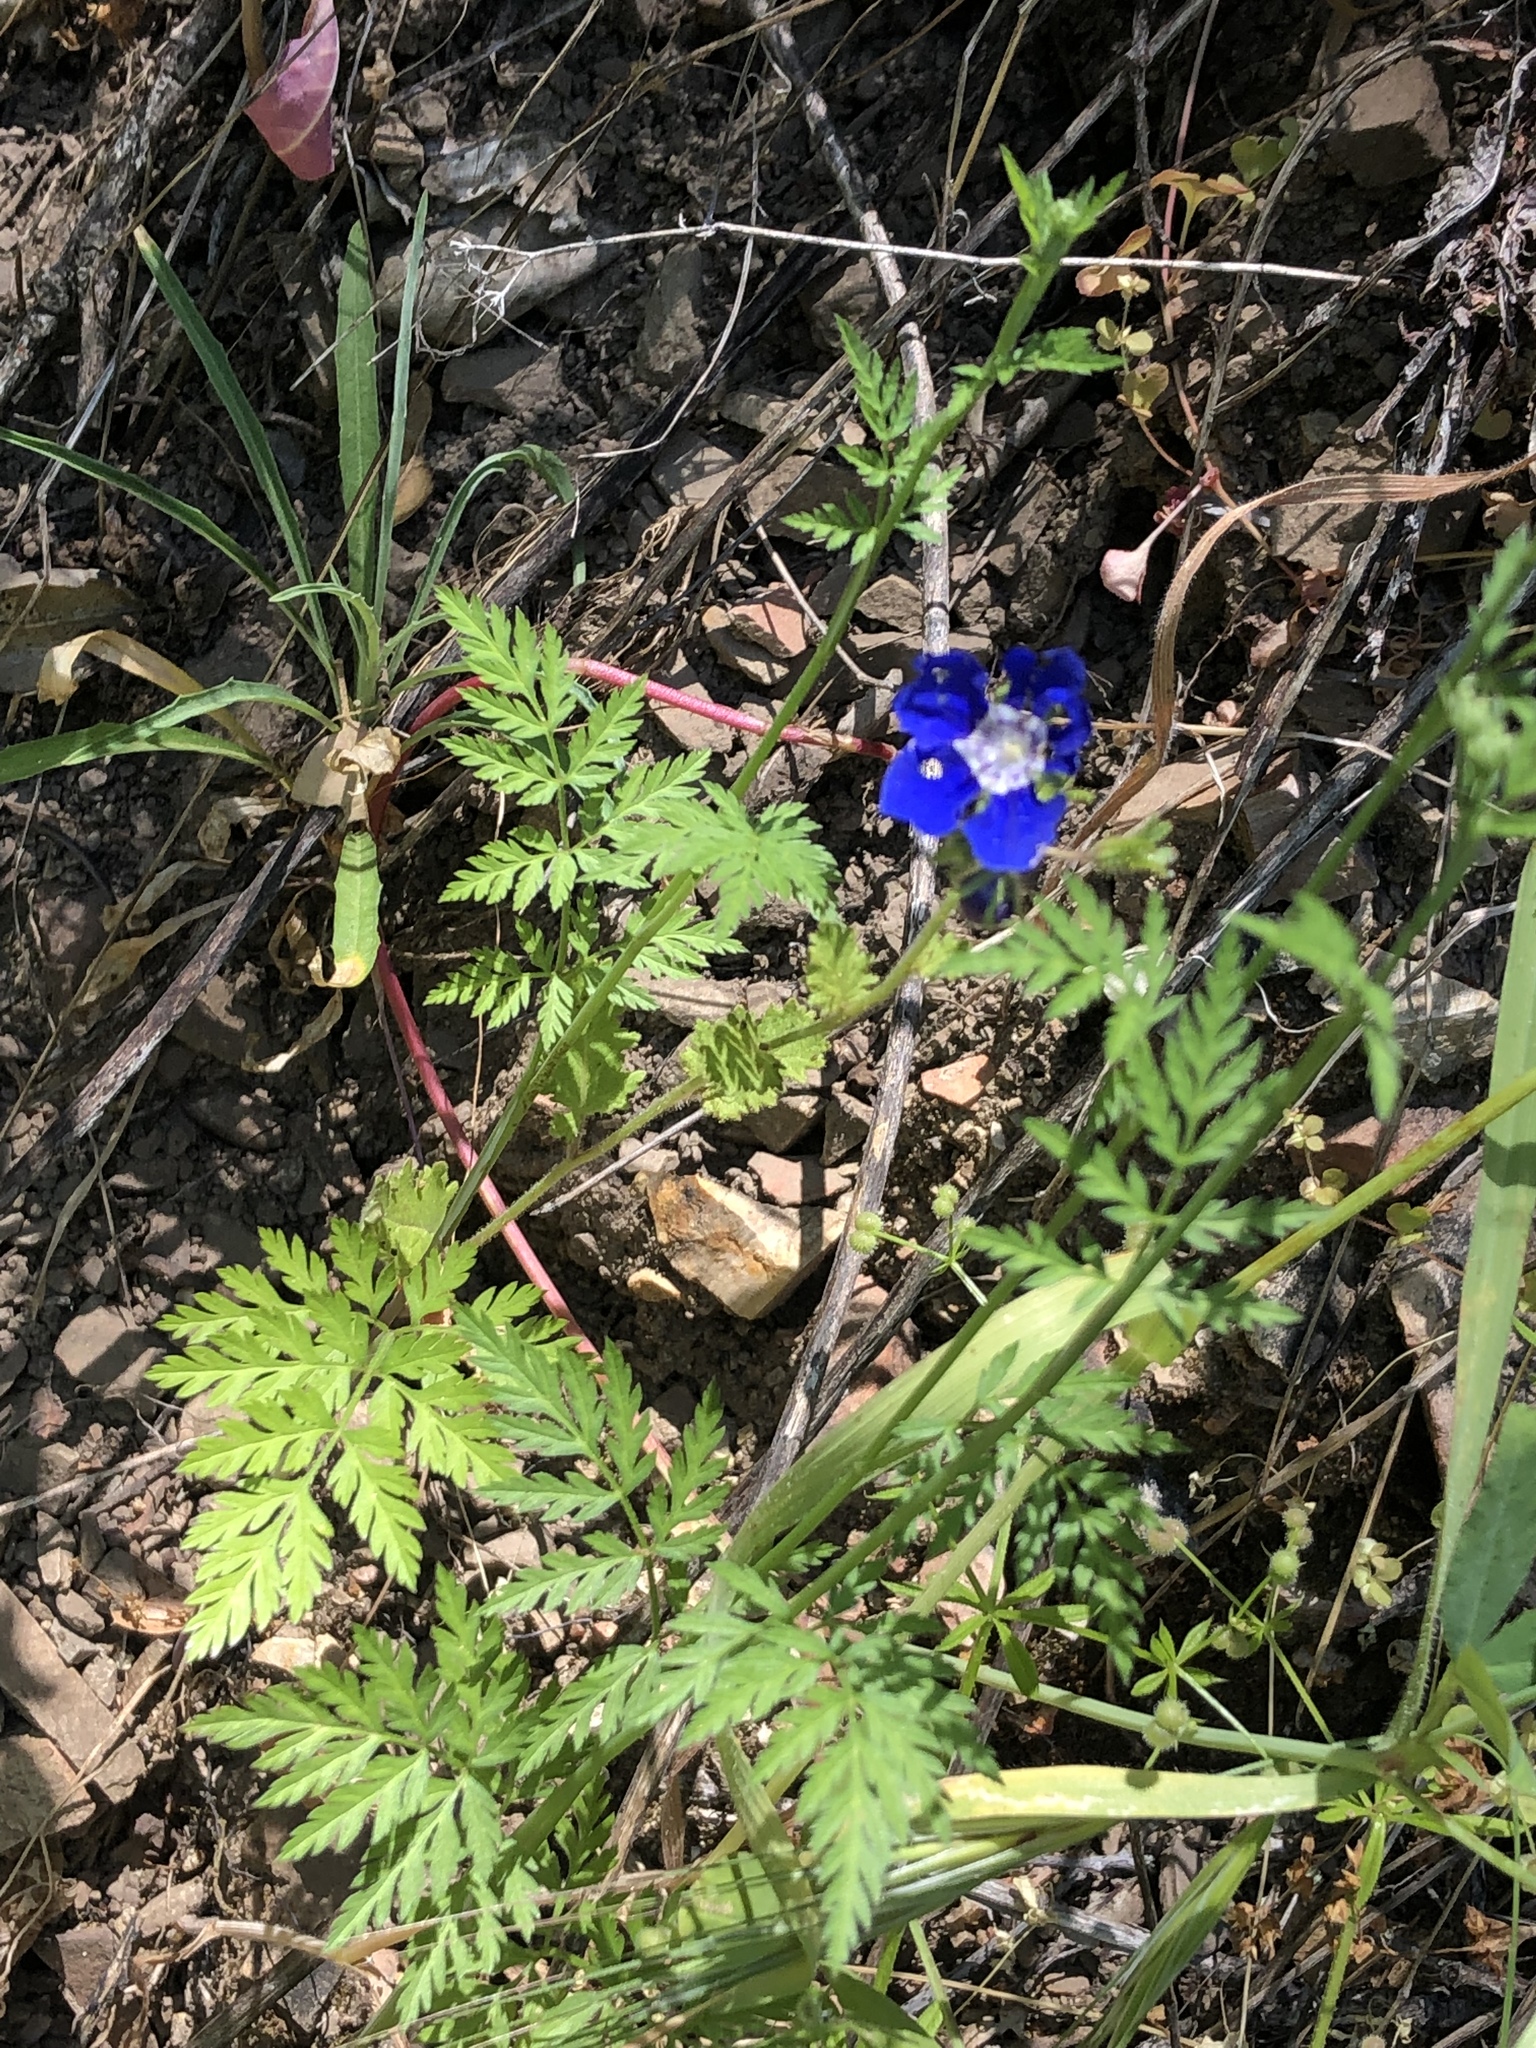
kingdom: Plantae
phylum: Tracheophyta
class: Magnoliopsida
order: Boraginales
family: Hydrophyllaceae
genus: Phacelia
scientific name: Phacelia viscida
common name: Sticky phacelia
